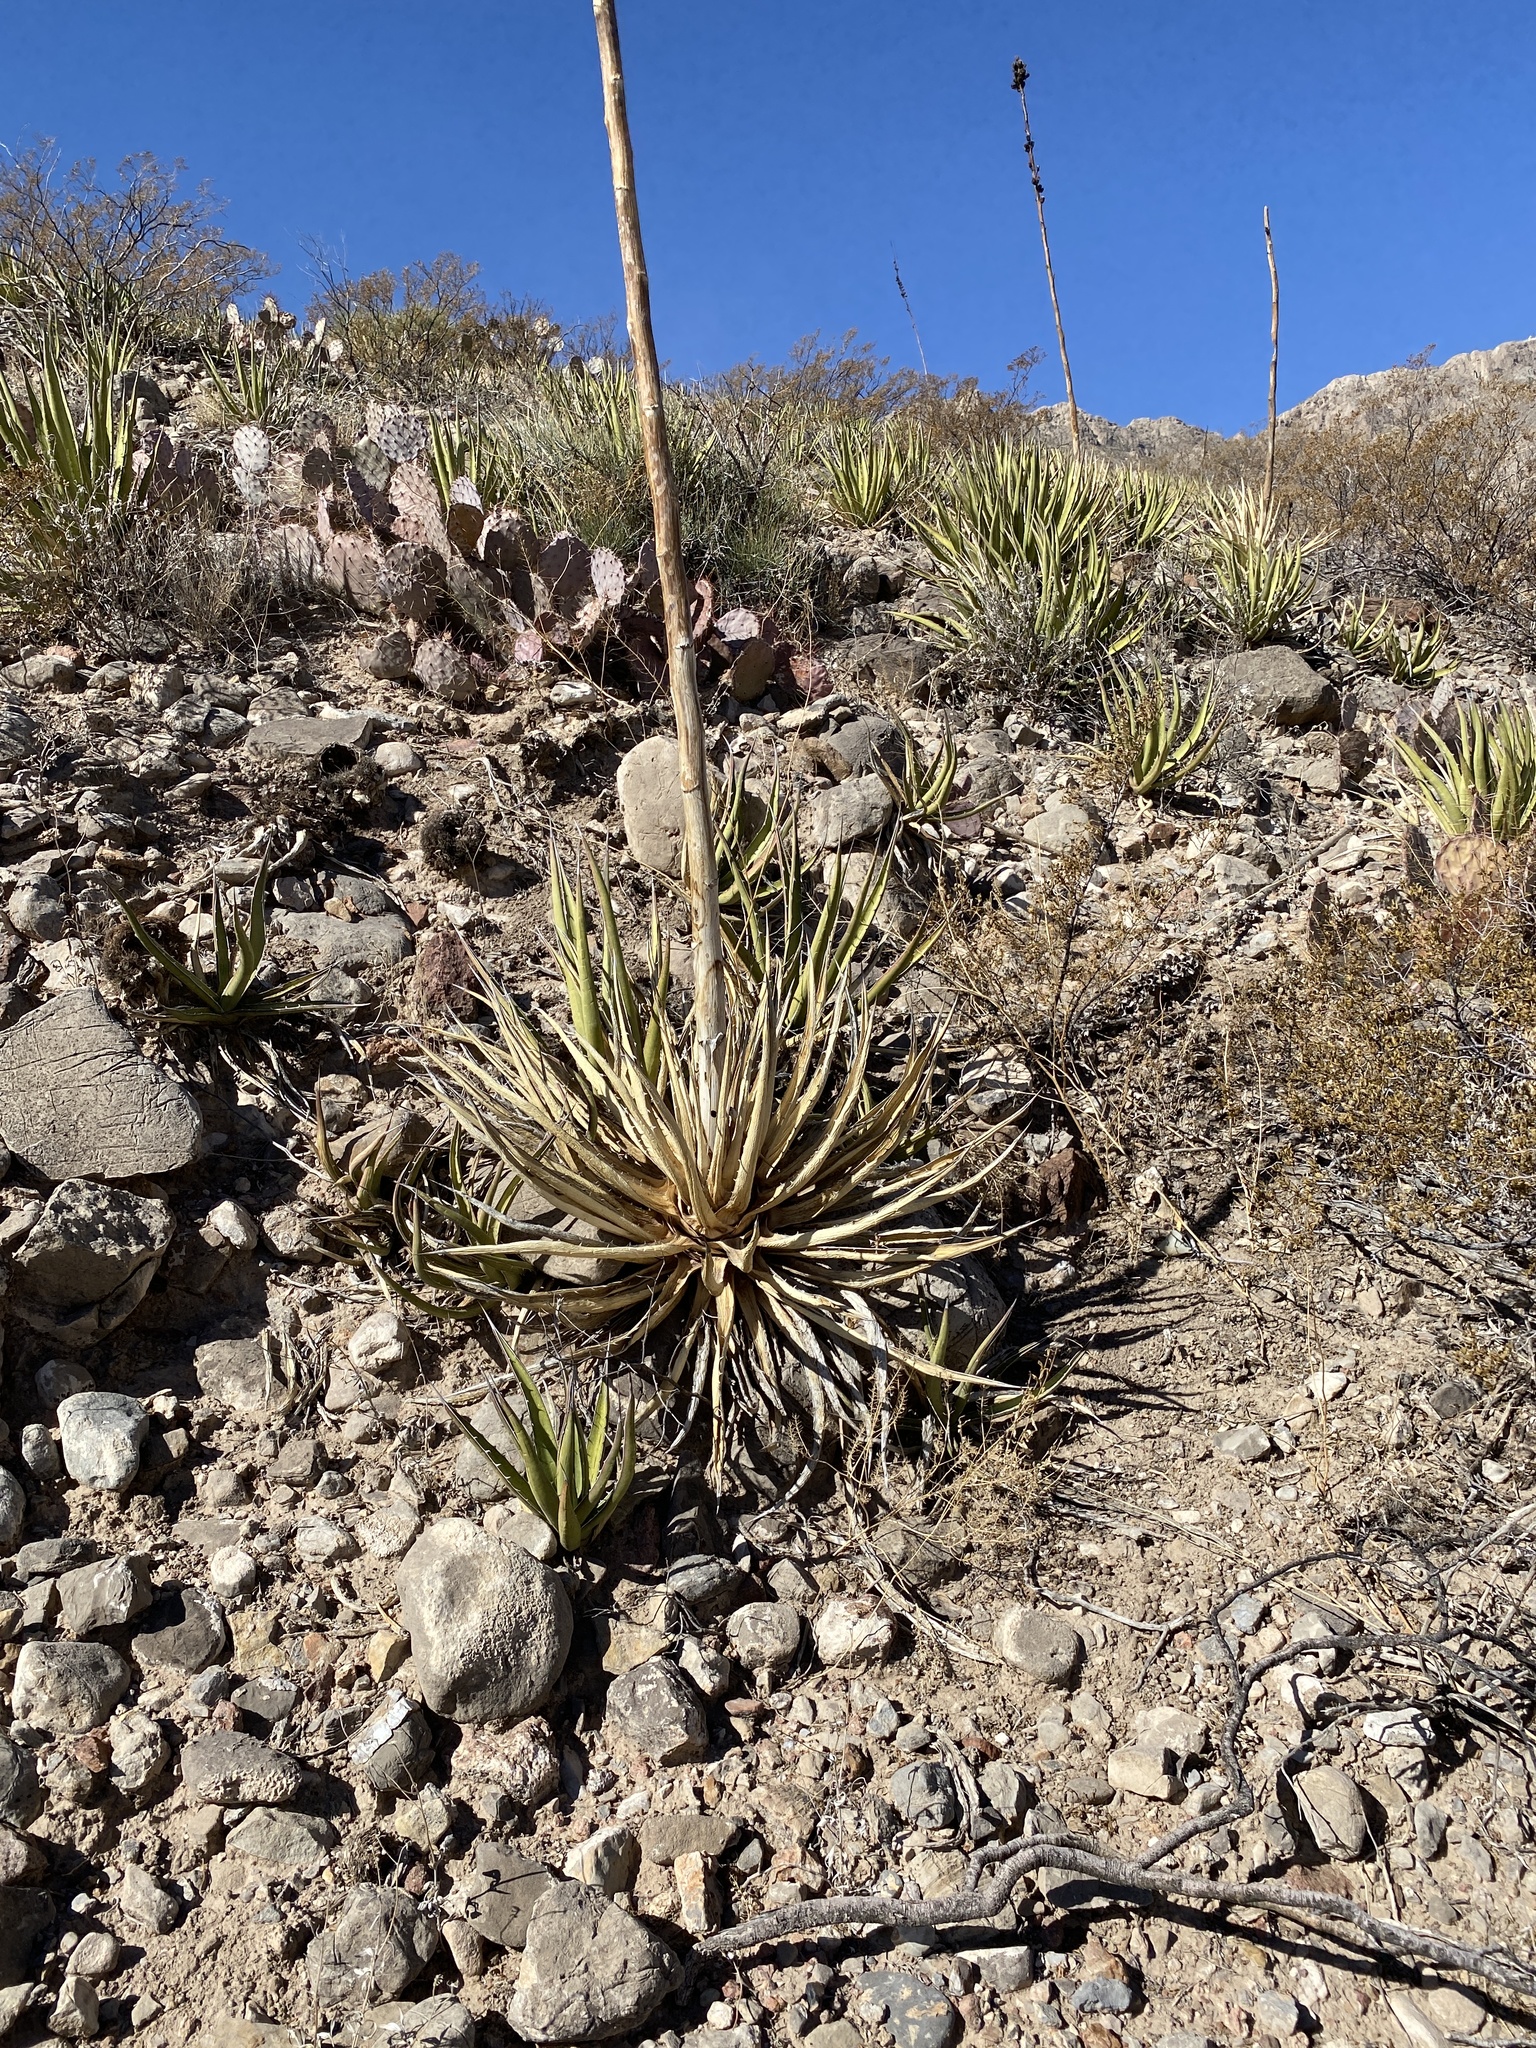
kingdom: Plantae
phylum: Tracheophyta
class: Liliopsida
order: Asparagales
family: Asparagaceae
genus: Agave
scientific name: Agave lechuguilla
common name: Lecheguilla agave
